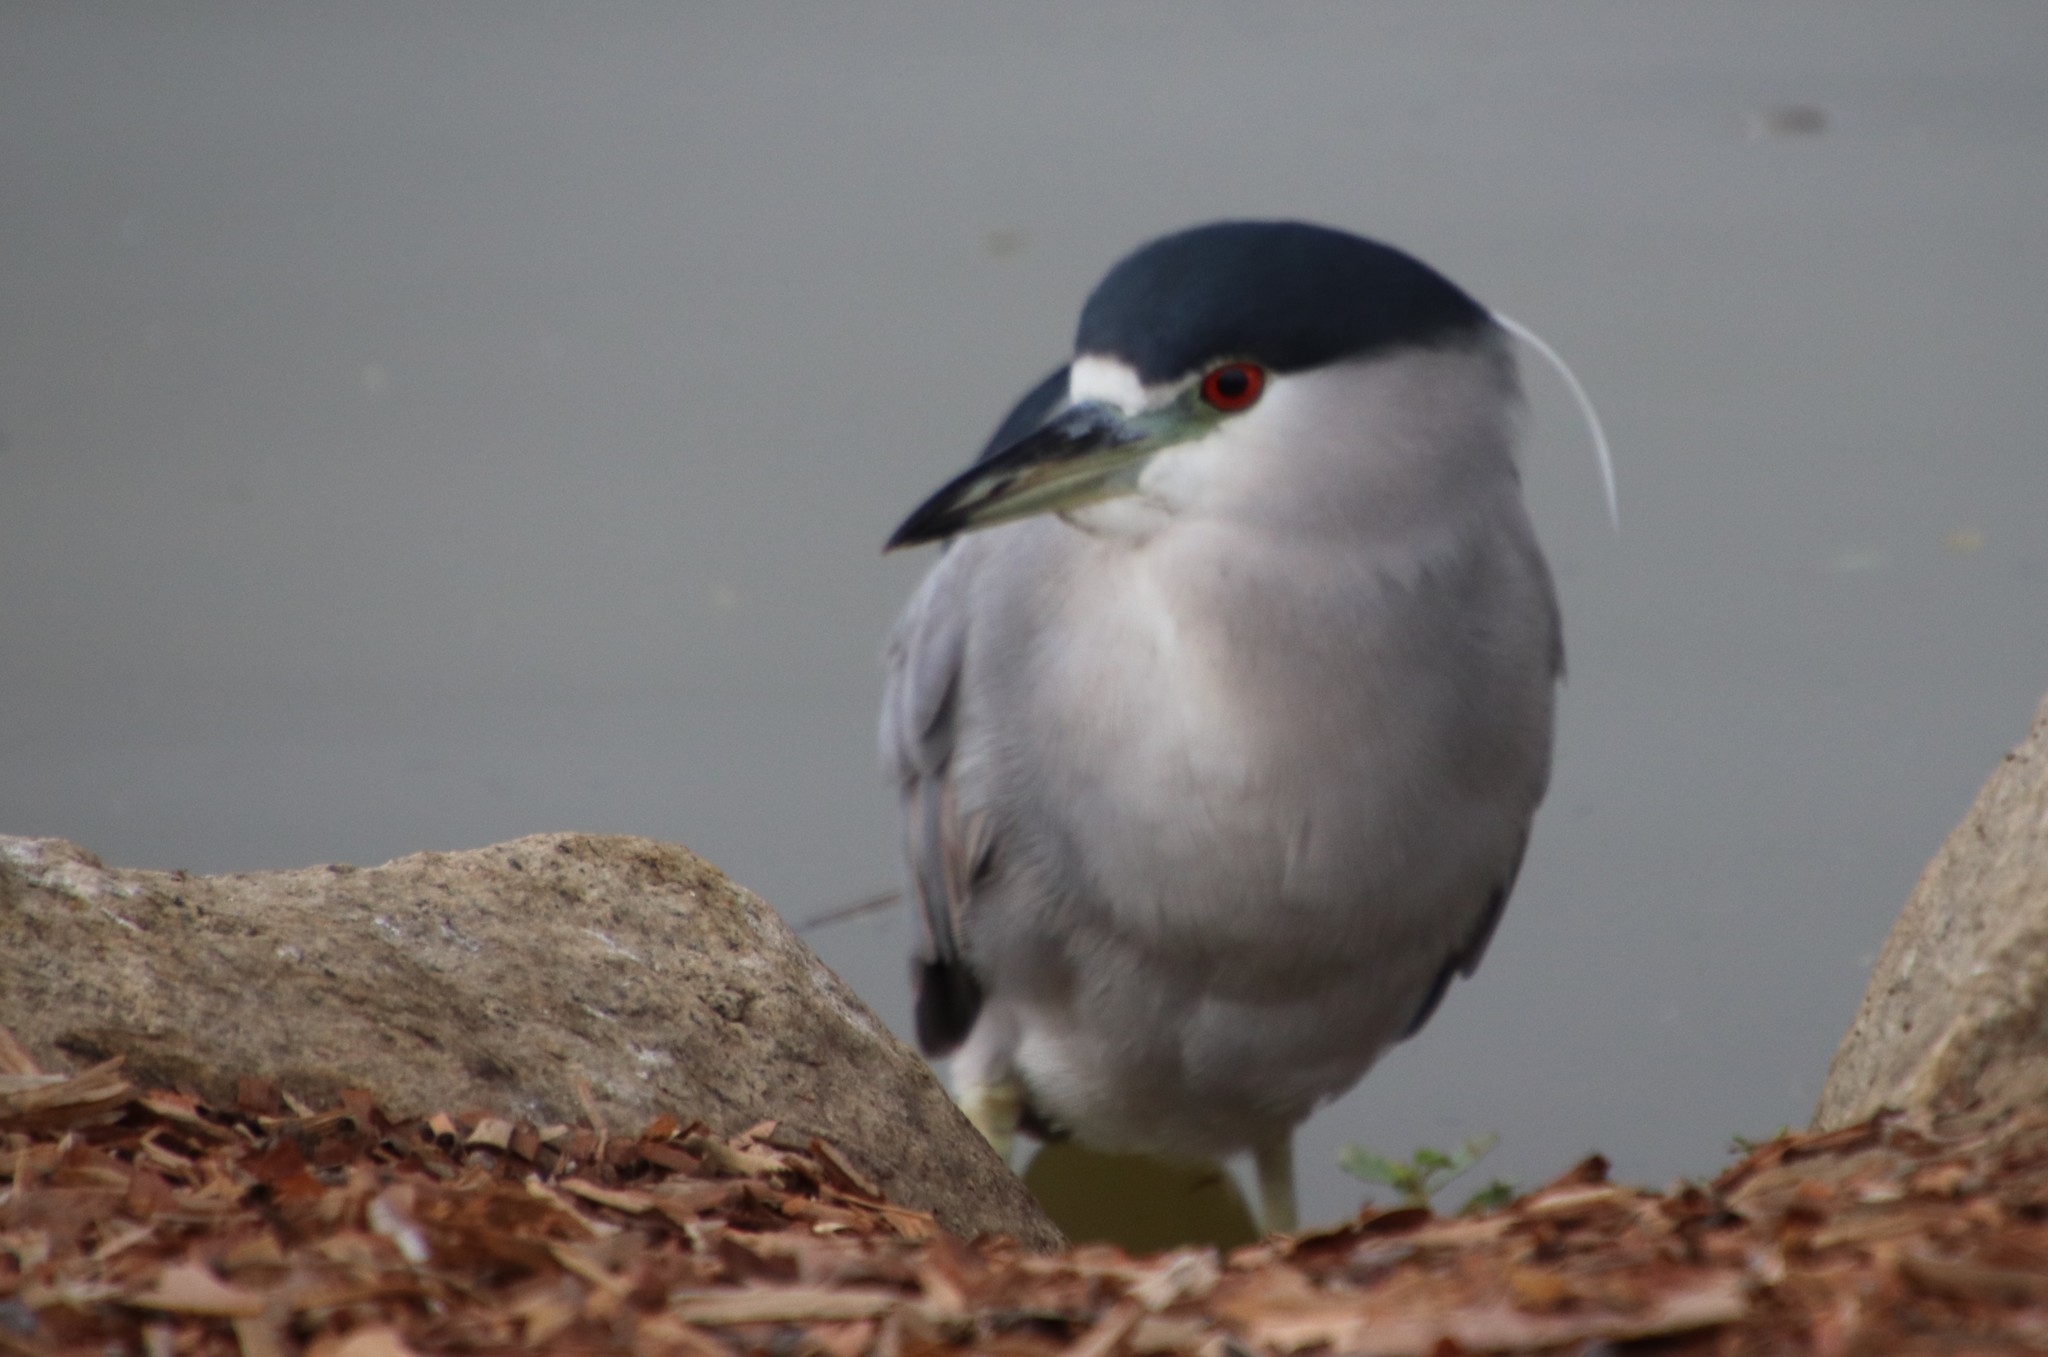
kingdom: Animalia
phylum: Chordata
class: Aves
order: Pelecaniformes
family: Ardeidae
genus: Nycticorax
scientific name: Nycticorax nycticorax
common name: Black-crowned night heron
